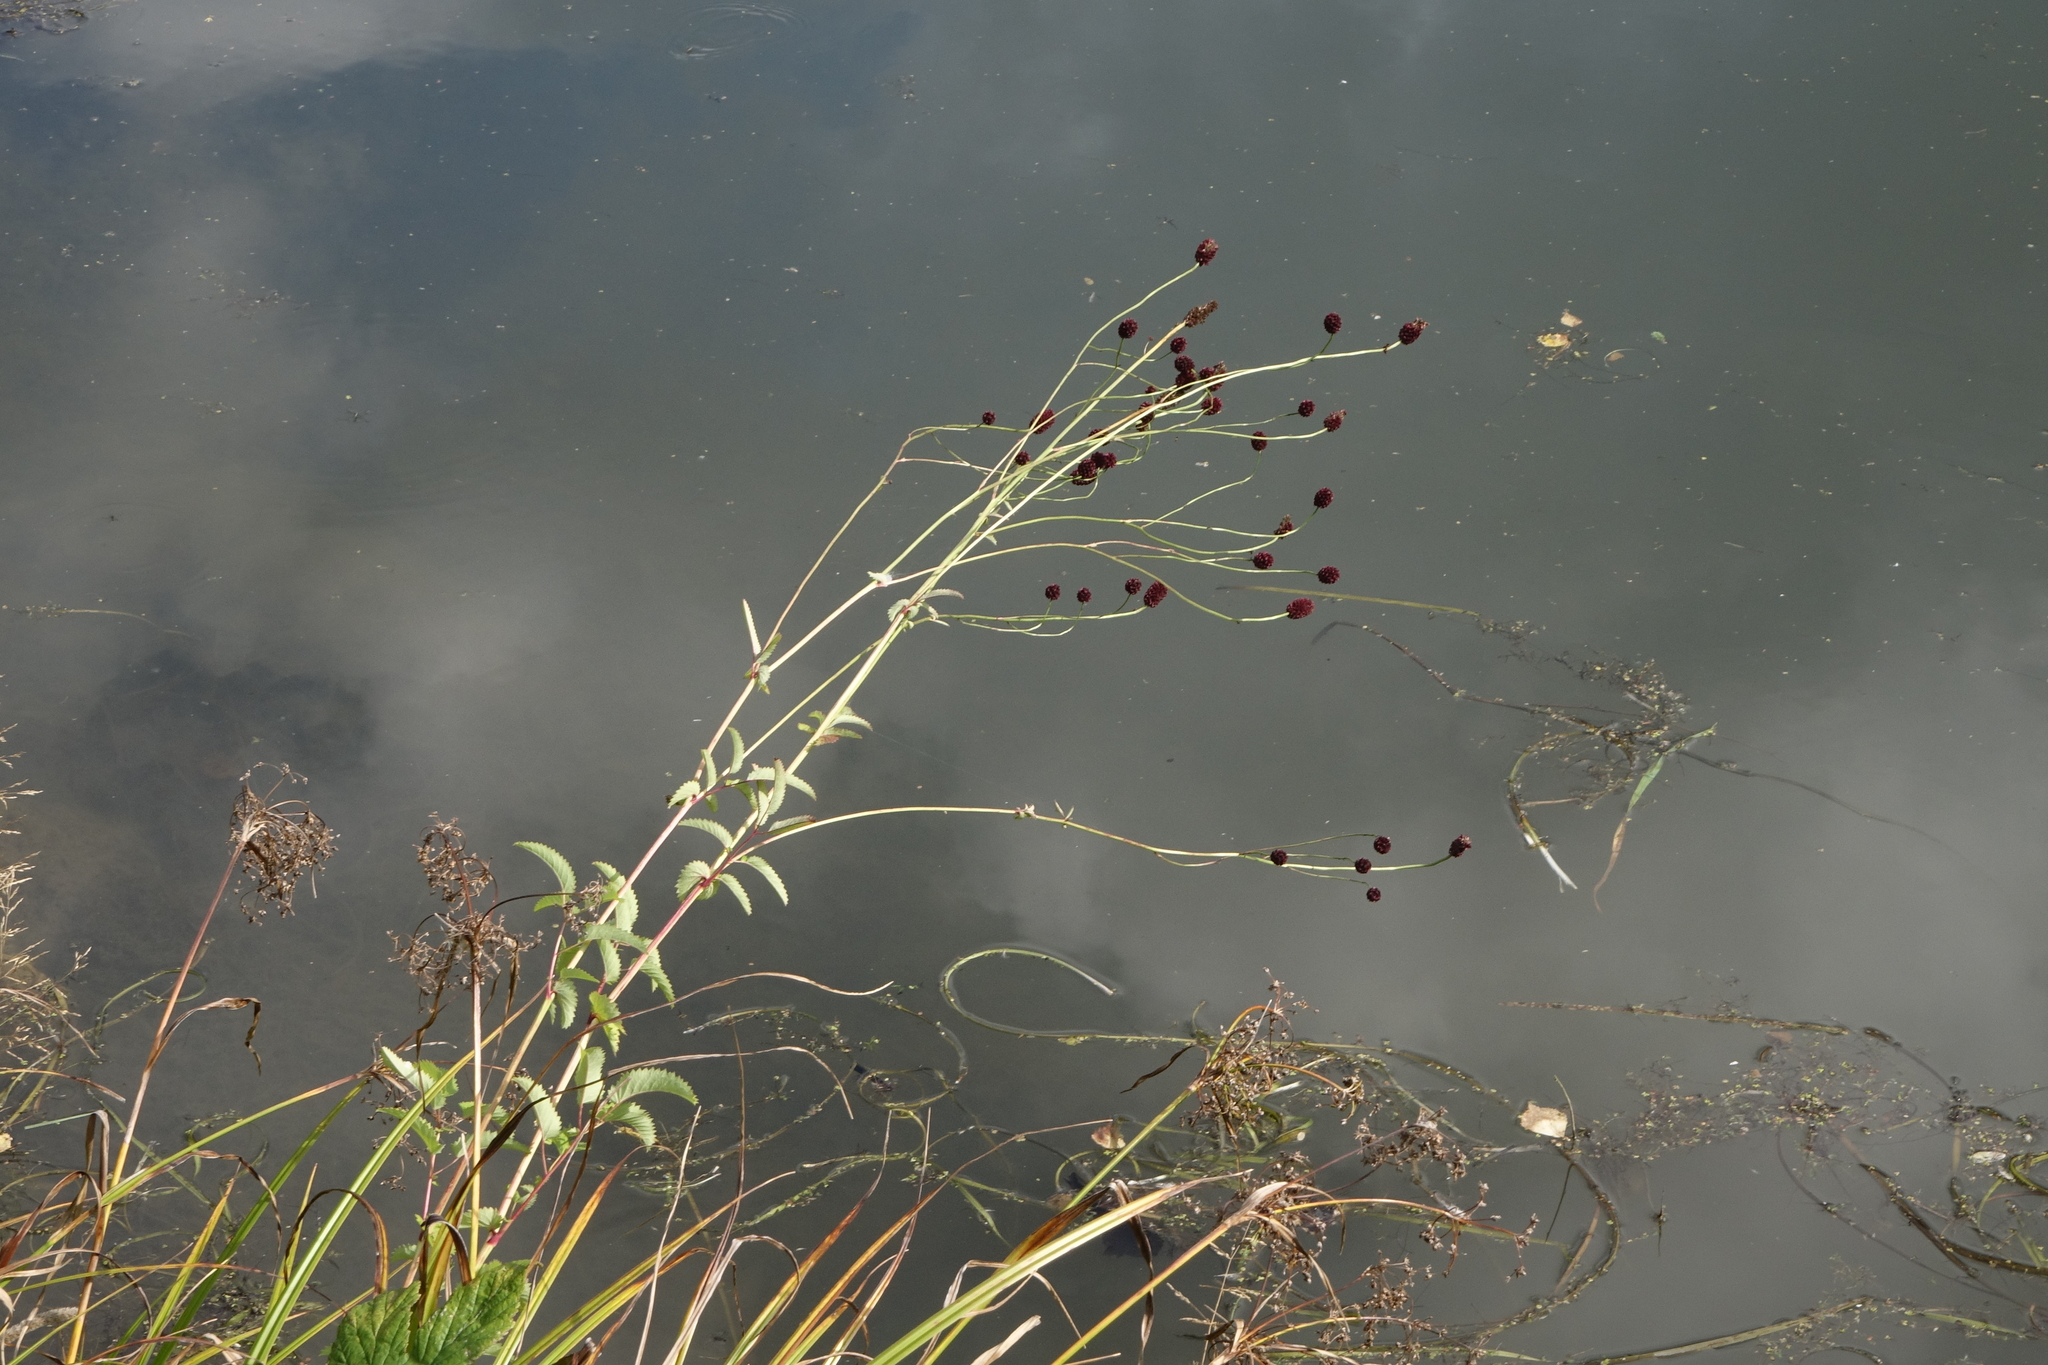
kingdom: Plantae
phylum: Tracheophyta
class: Magnoliopsida
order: Rosales
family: Rosaceae
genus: Sanguisorba
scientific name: Sanguisorba officinalis
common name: Great burnet
